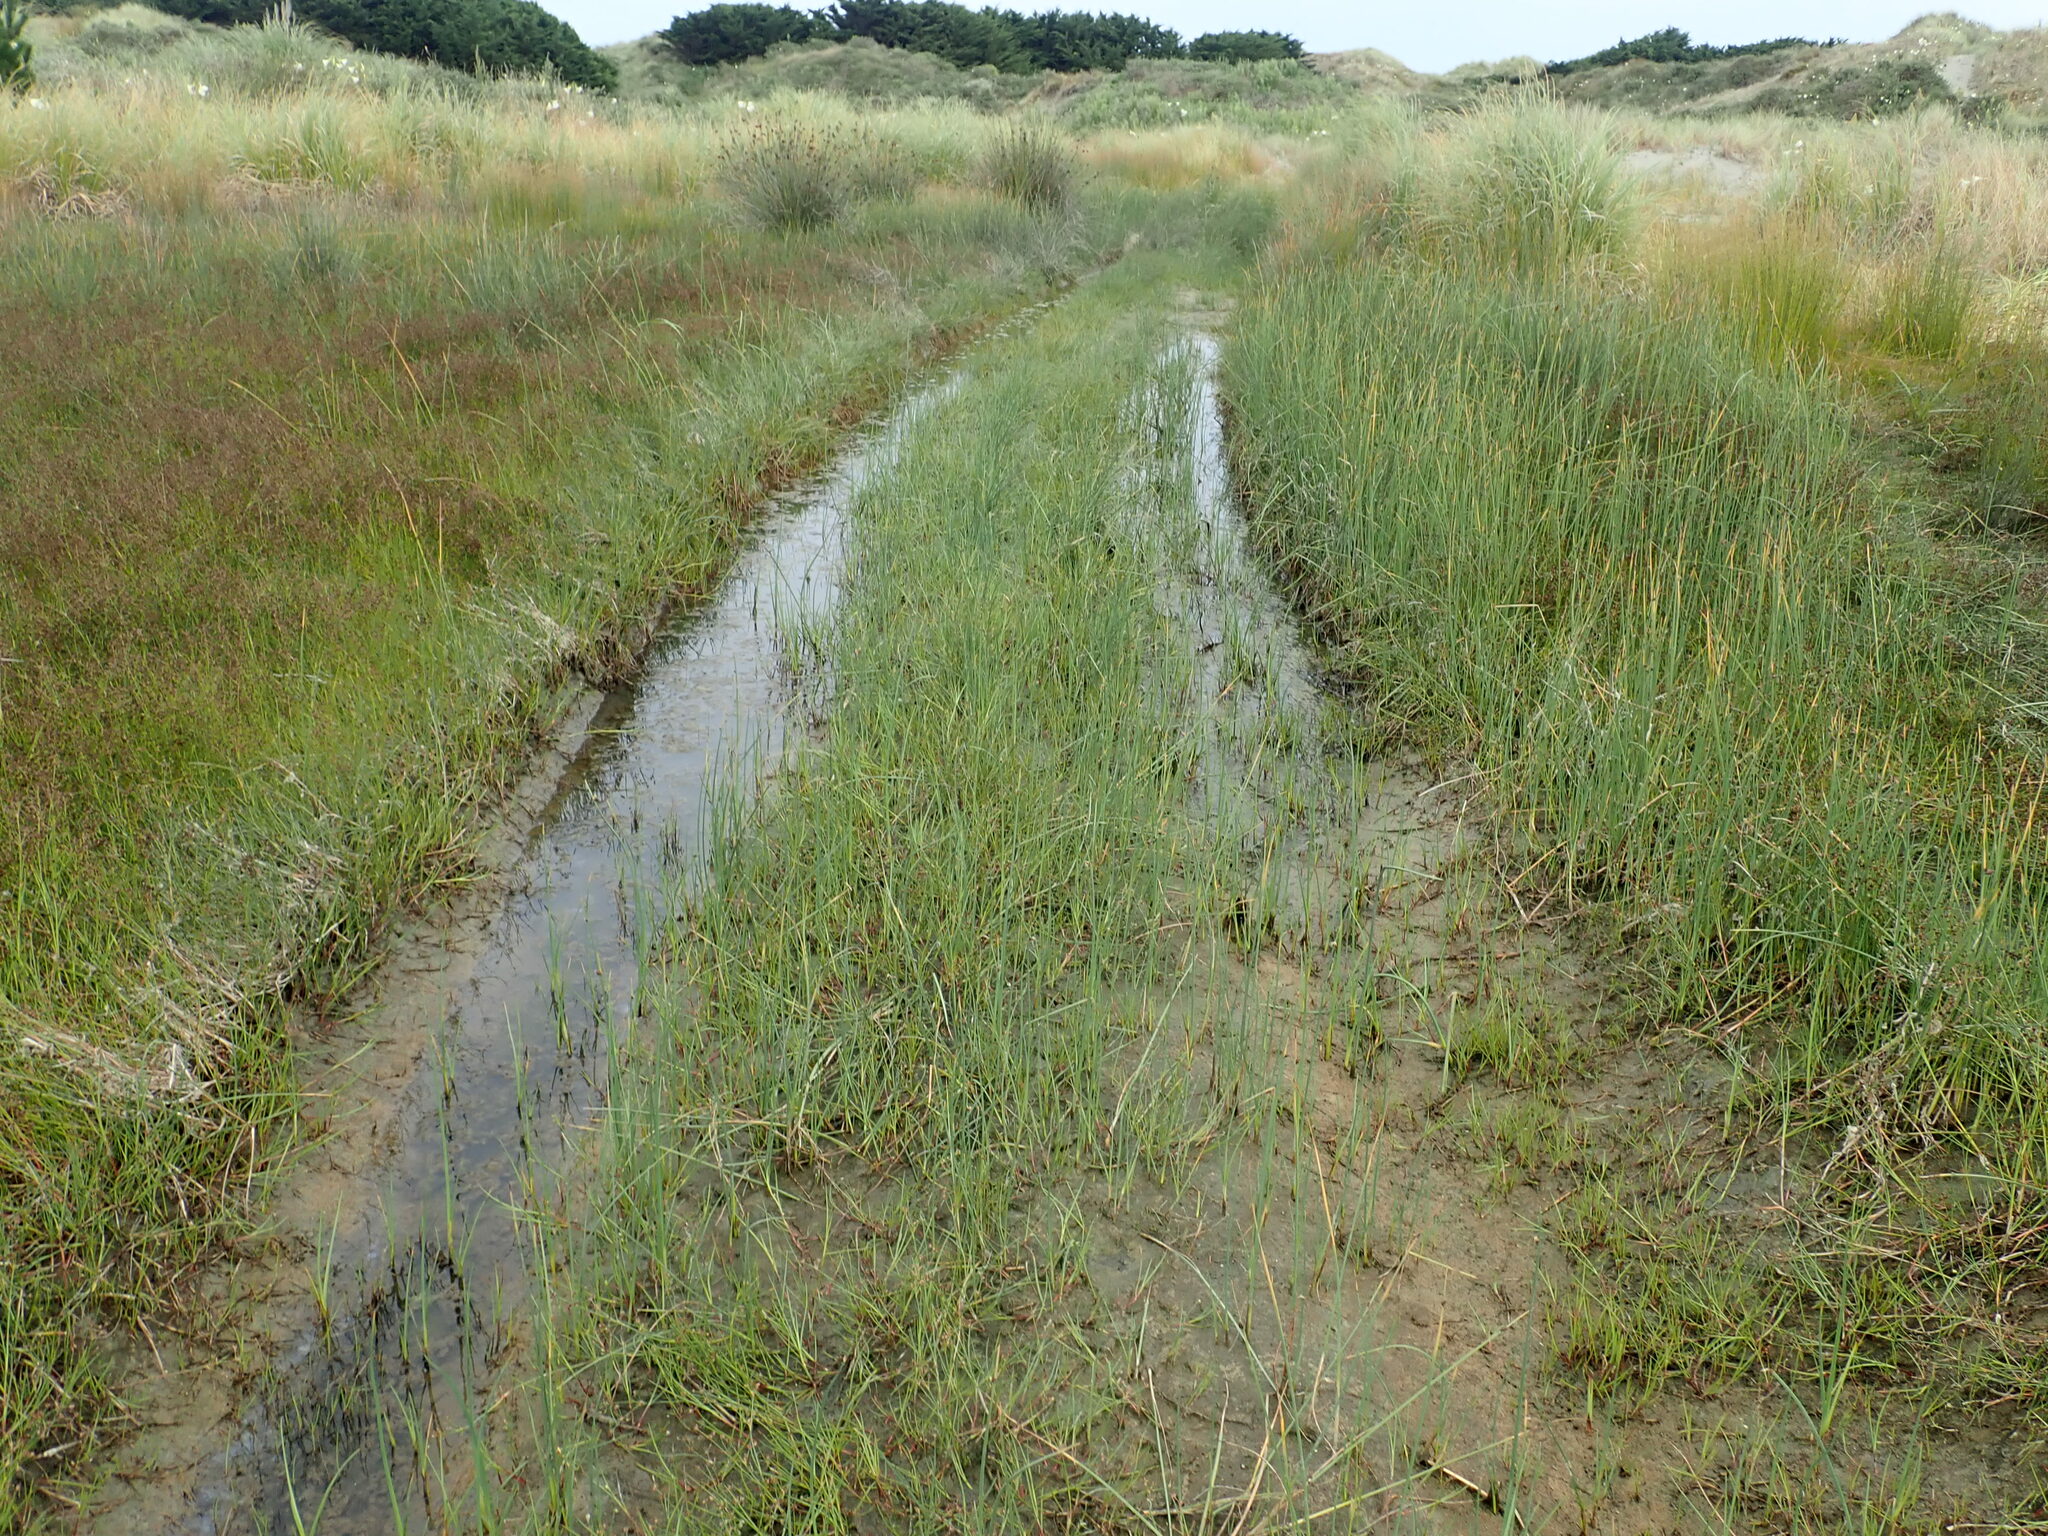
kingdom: Plantae
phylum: Tracheophyta
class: Liliopsida
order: Poales
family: Cyperaceae
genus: Schoenoplectus
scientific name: Schoenoplectus pungens
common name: Sharp club-rush
